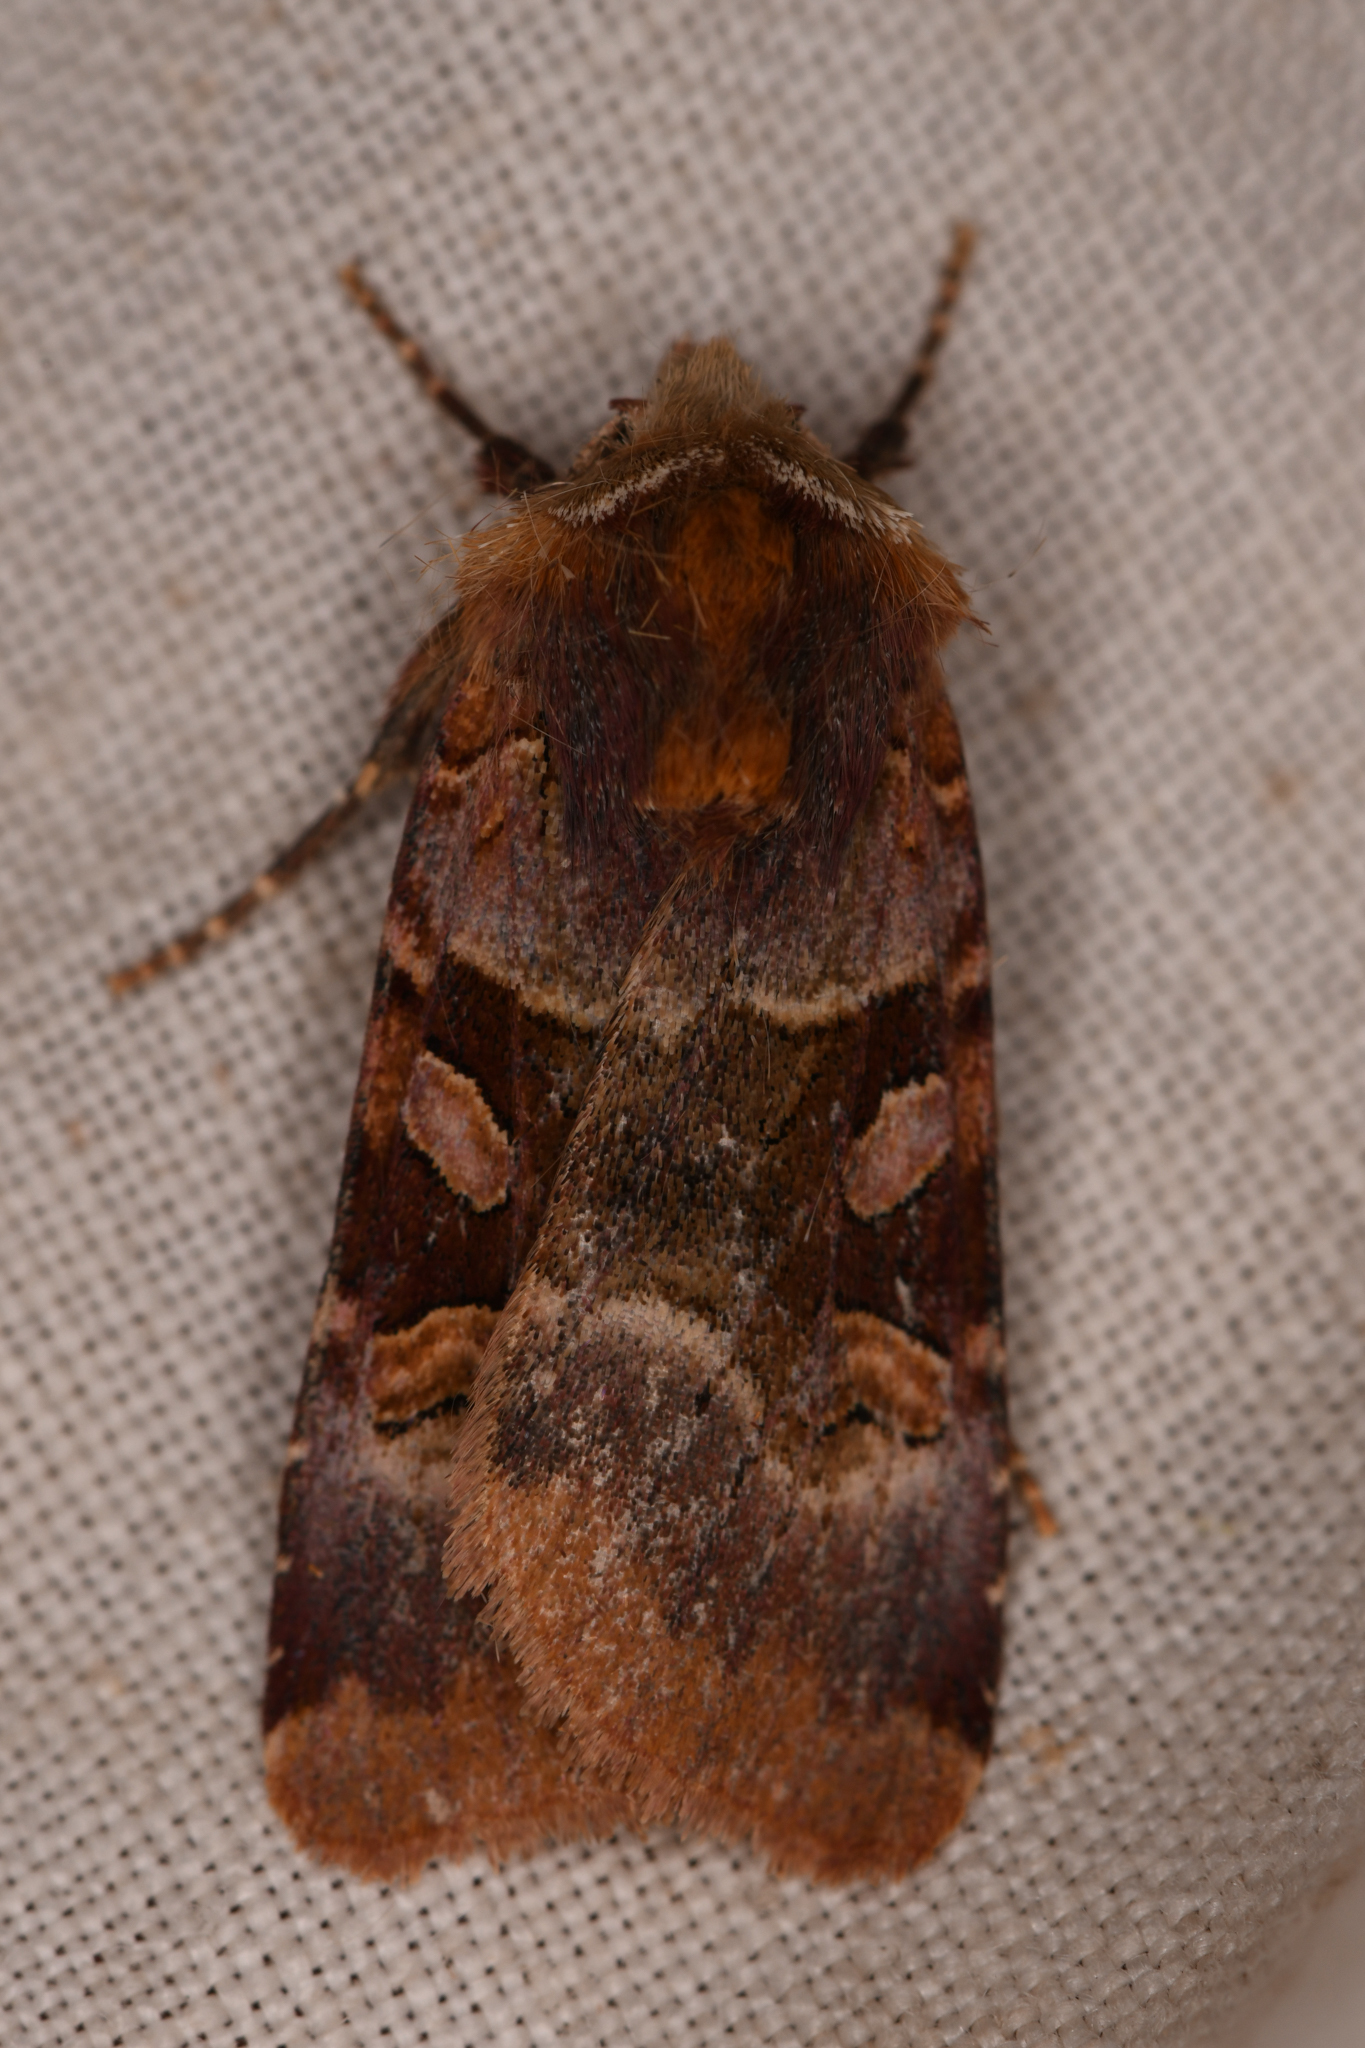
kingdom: Animalia
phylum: Arthropoda
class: Insecta
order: Lepidoptera
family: Noctuidae
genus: Xestia
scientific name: Xestia oblata
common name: Rosy dart
